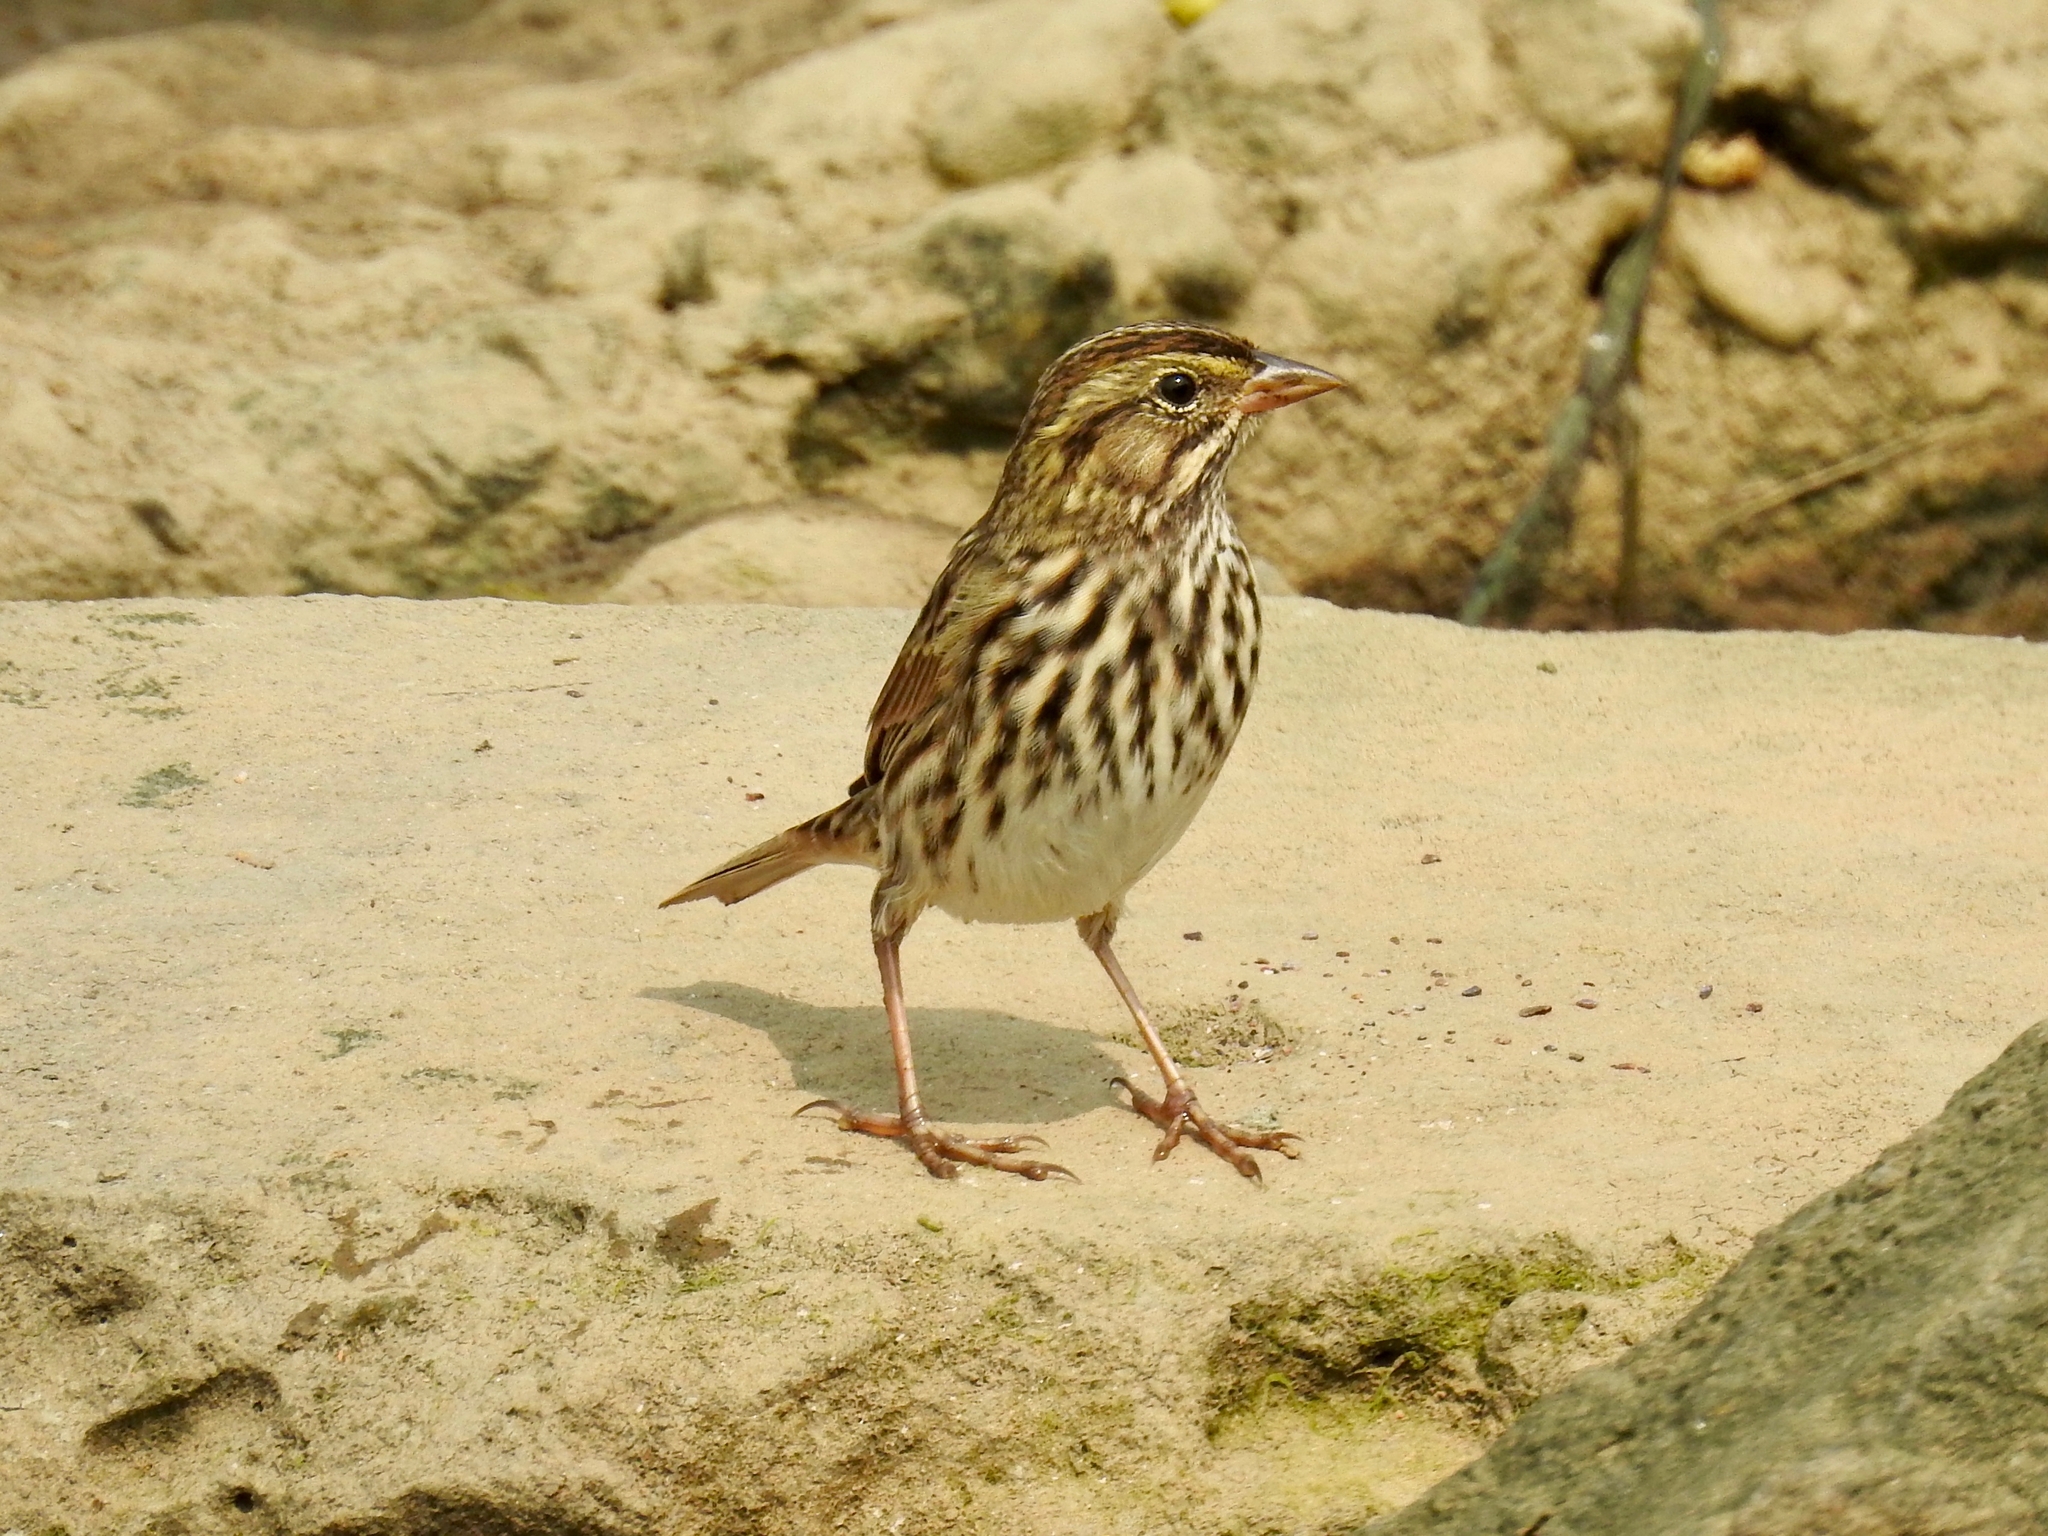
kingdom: Animalia
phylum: Chordata
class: Aves
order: Passeriformes
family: Passerellidae
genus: Passerculus
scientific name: Passerculus sandwichensis
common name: Savannah sparrow
